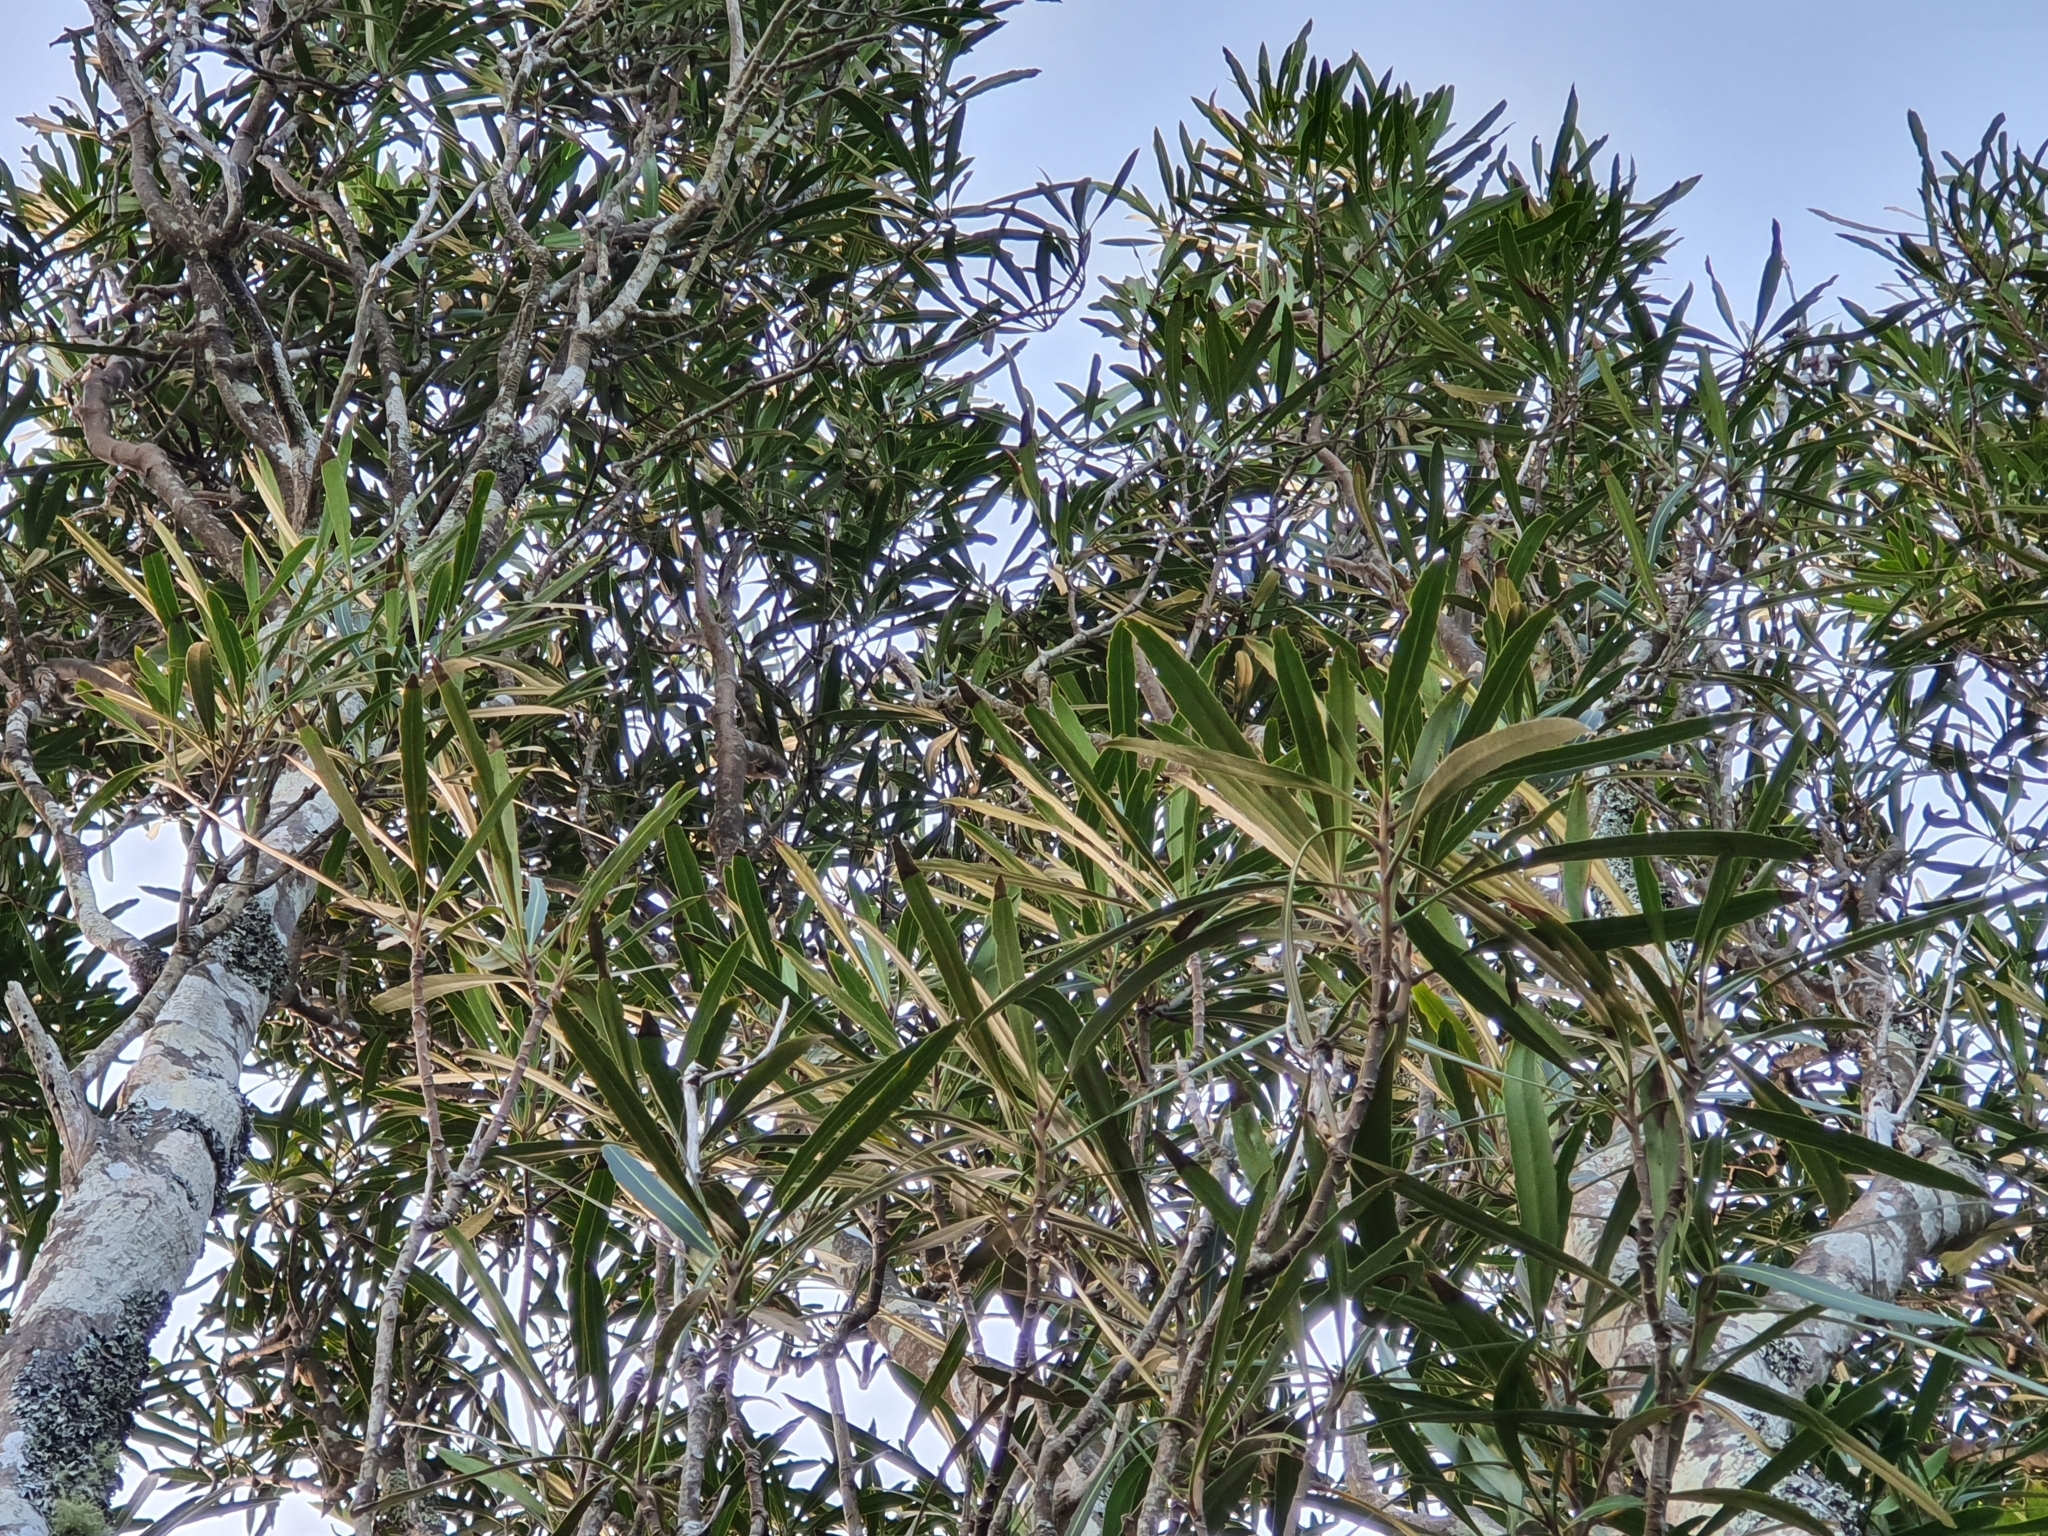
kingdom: Plantae
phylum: Tracheophyta
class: Magnoliopsida
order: Apiales
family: Araliaceae
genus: Pseudopanax
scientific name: Pseudopanax crassifolius
